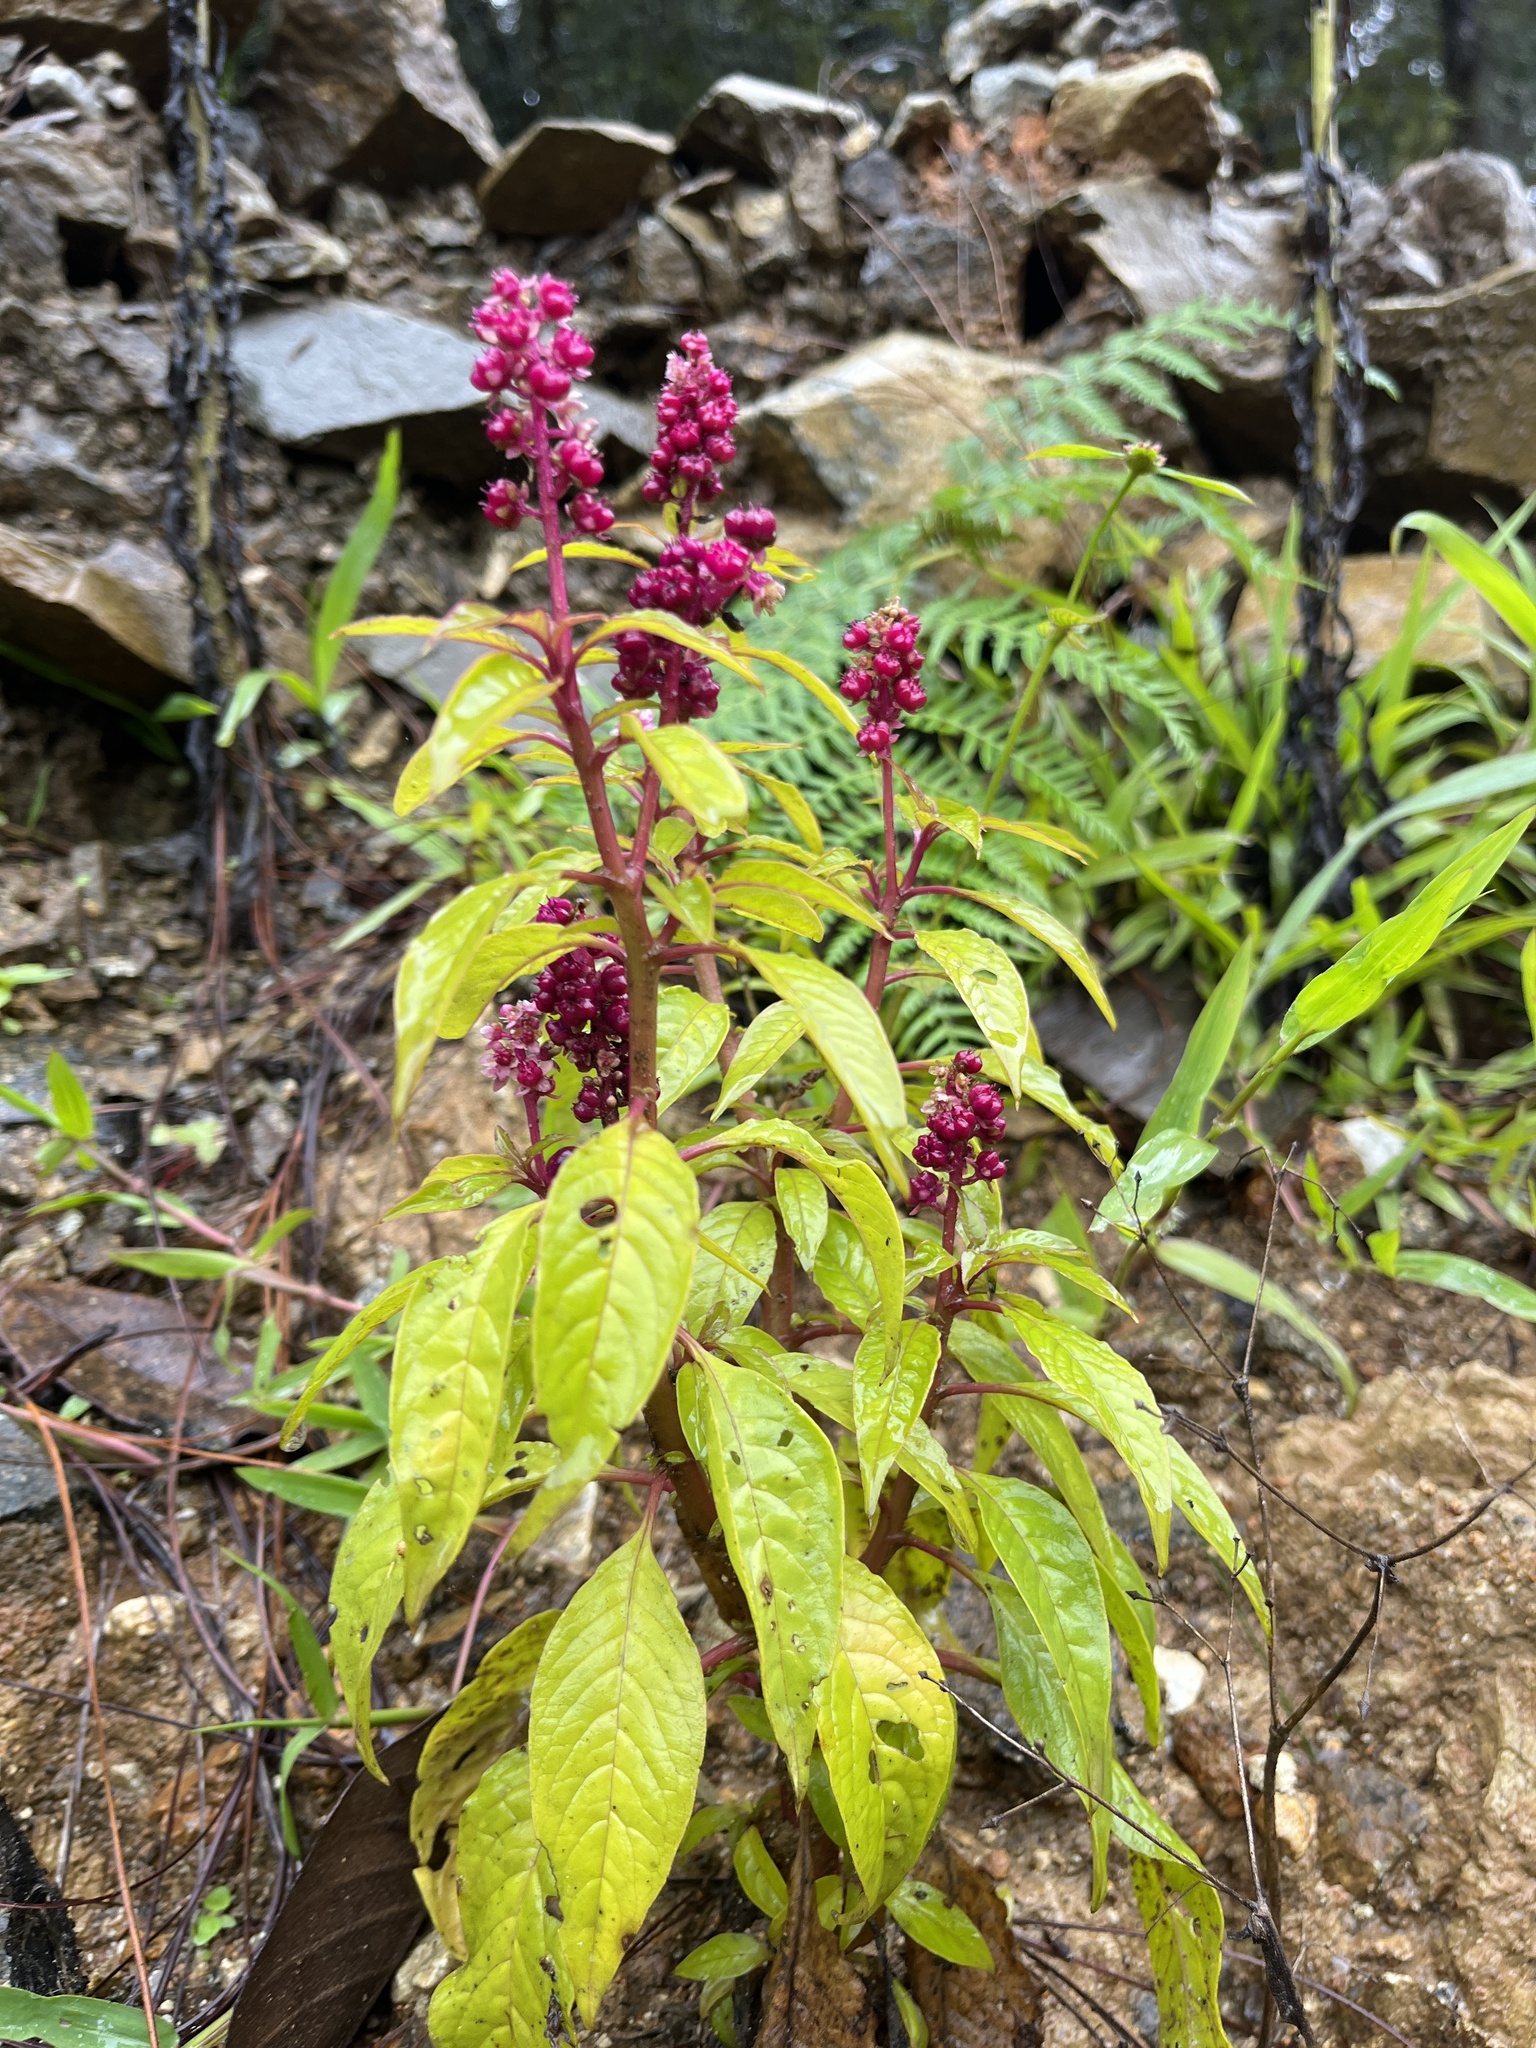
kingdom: Plantae
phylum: Tracheophyta
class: Magnoliopsida
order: Caryophyllales
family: Phytolaccaceae
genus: Phytolacca
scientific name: Phytolacca rugosa
